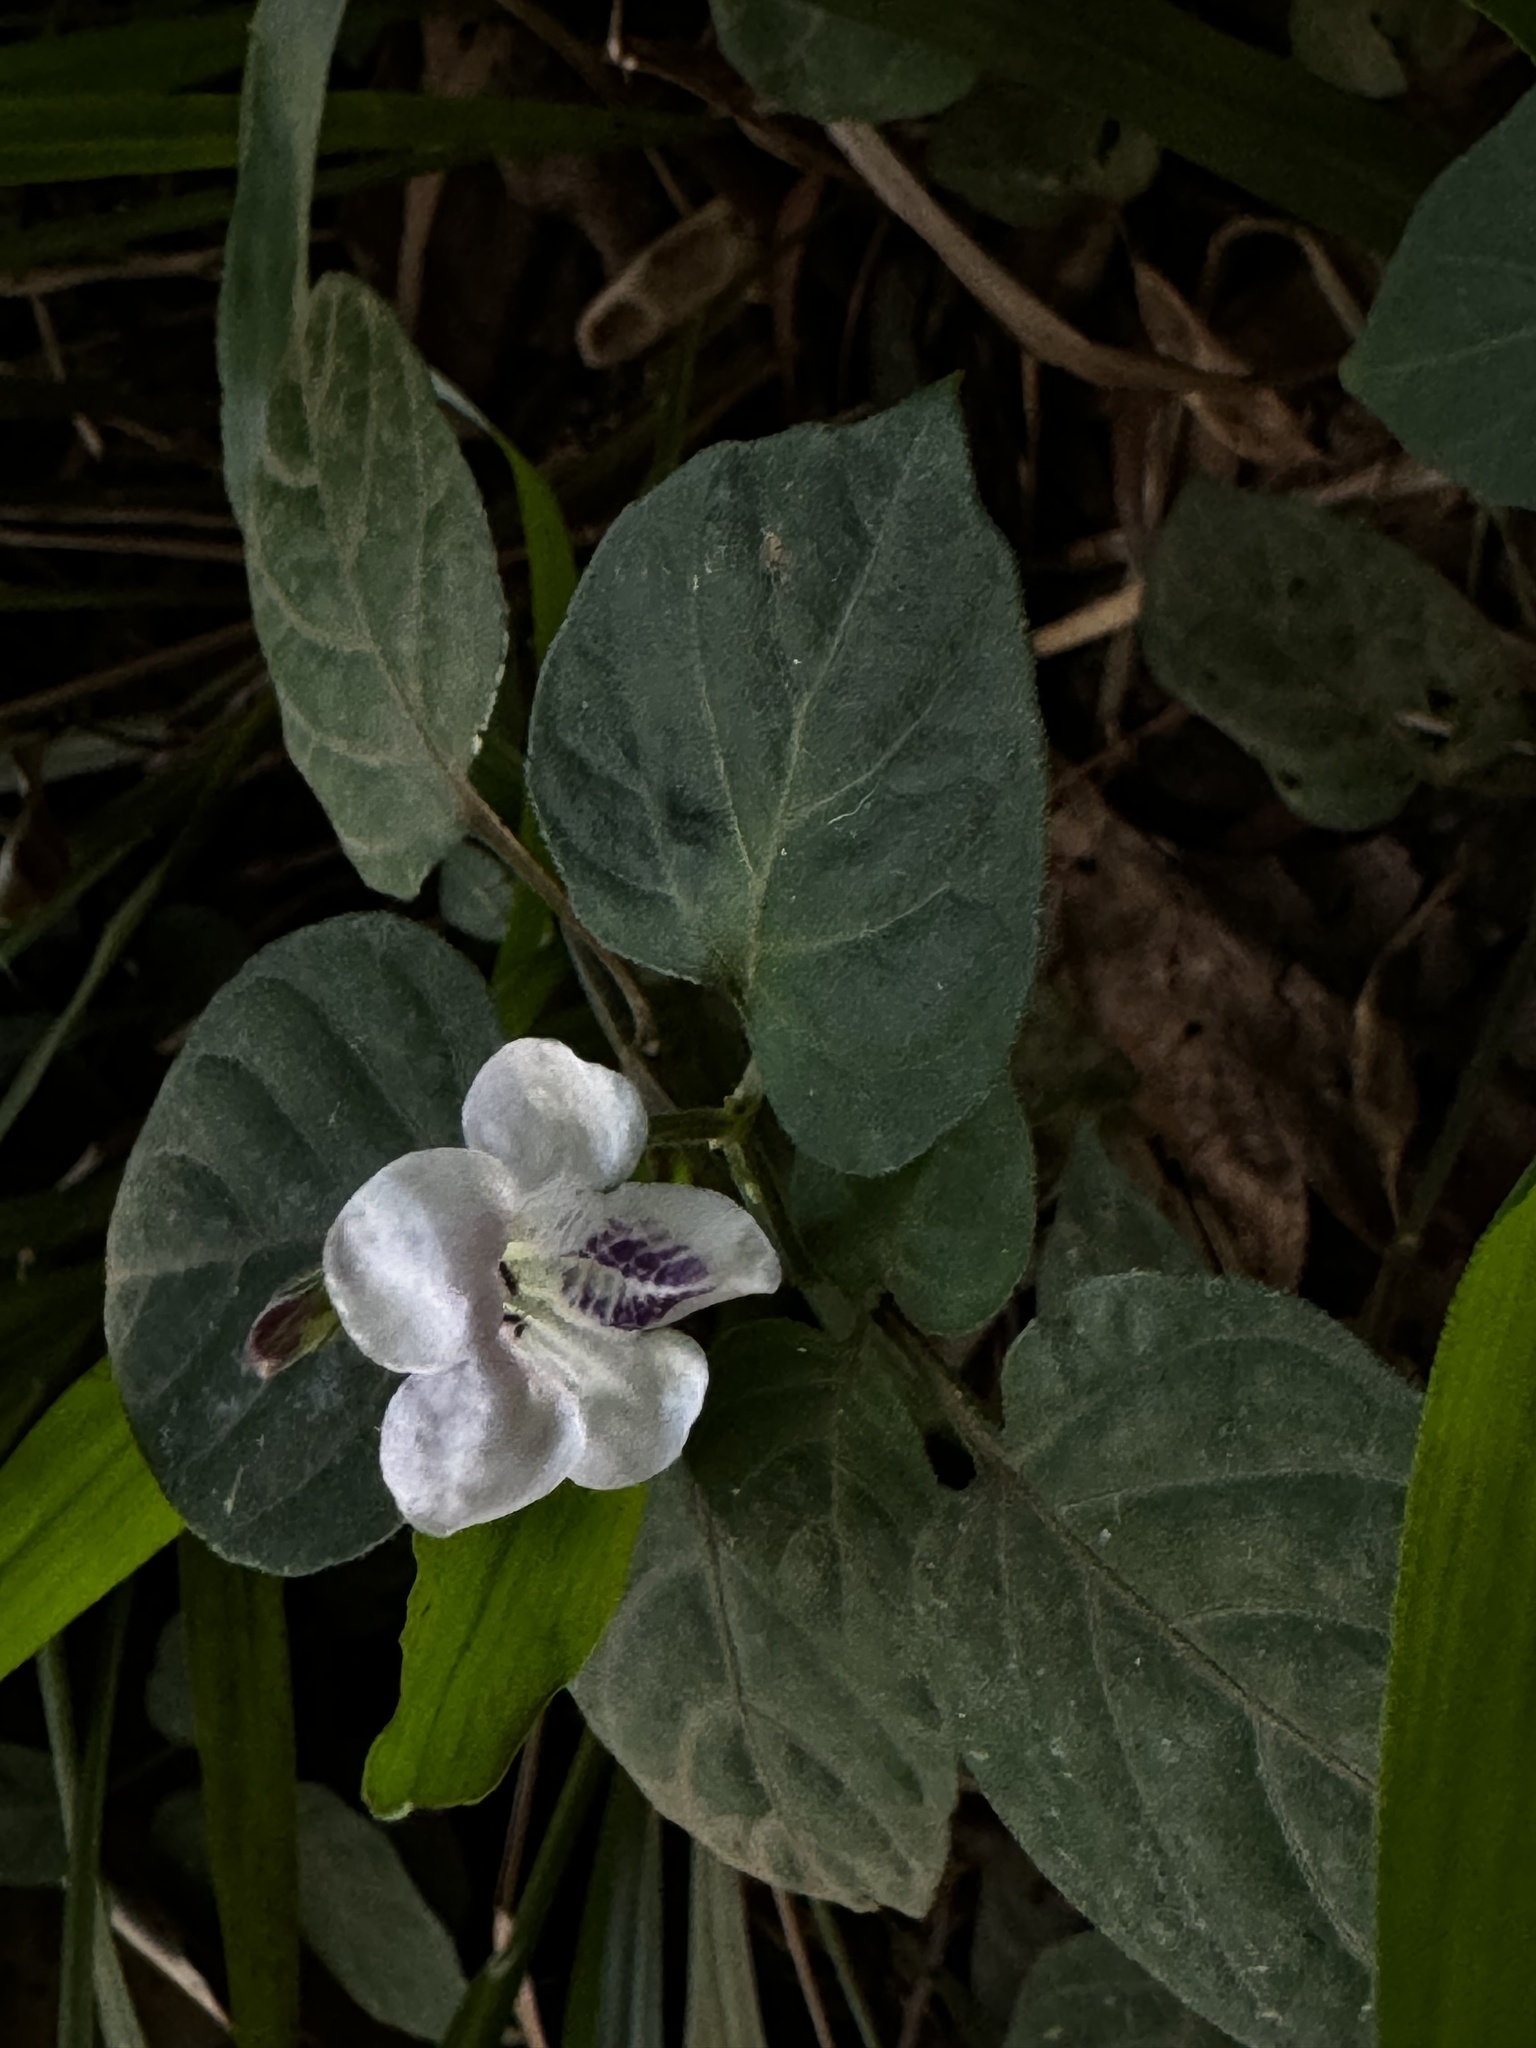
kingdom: Plantae
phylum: Tracheophyta
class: Magnoliopsida
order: Lamiales
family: Acanthaceae
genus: Asystasia
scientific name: Asystasia intrusa
